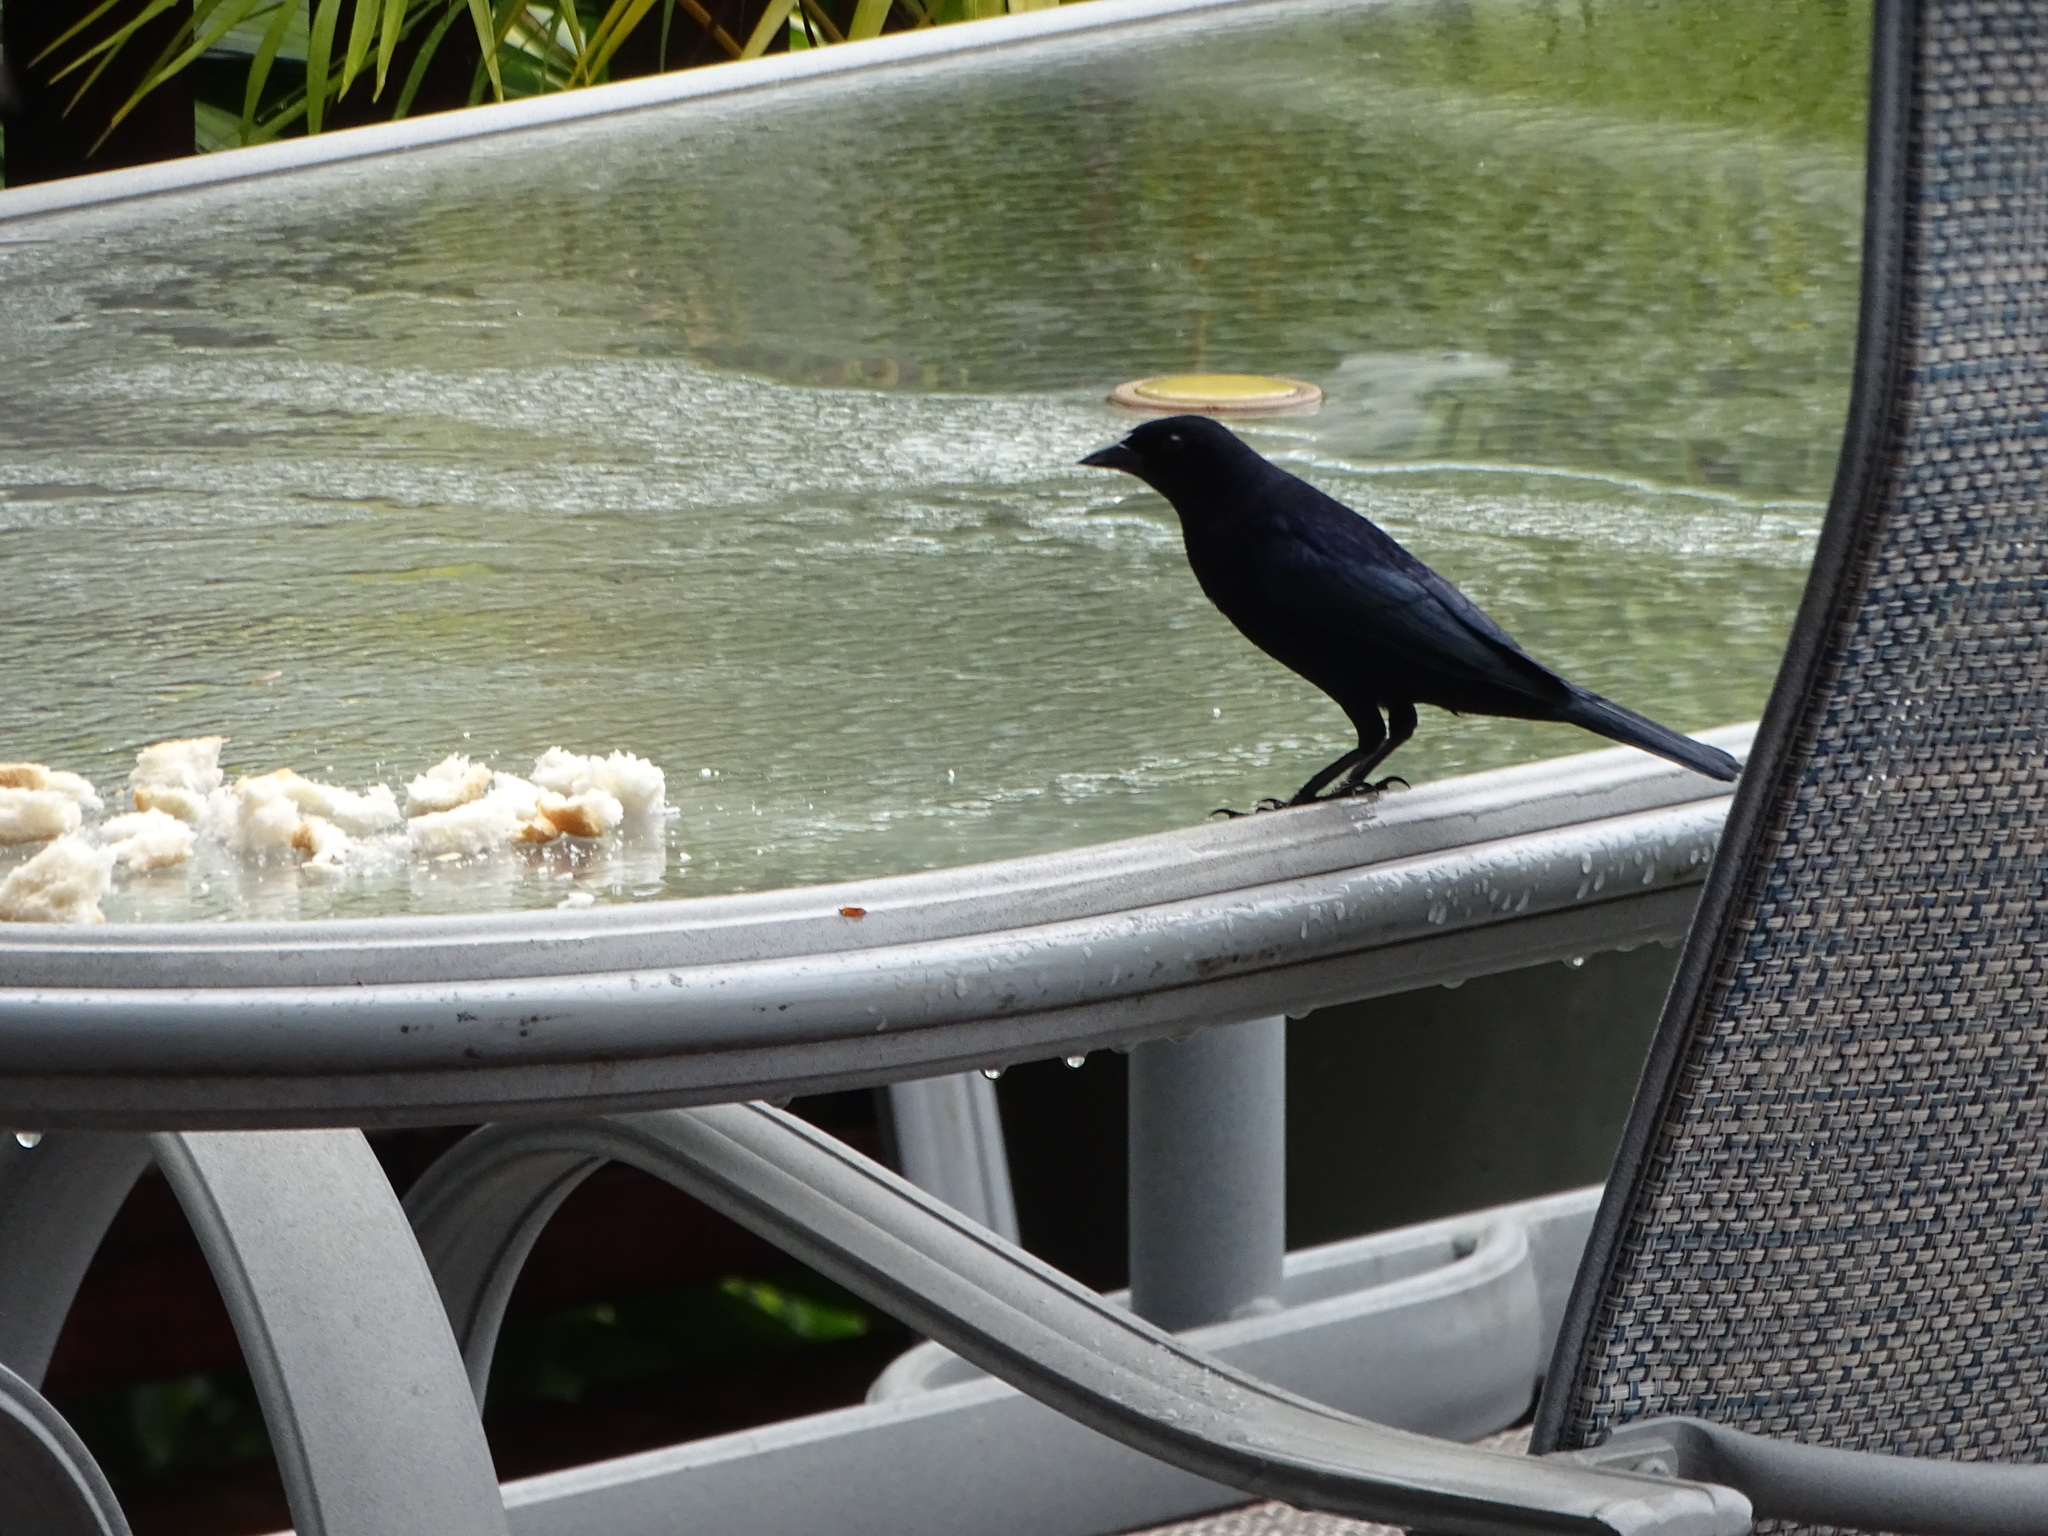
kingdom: Animalia
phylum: Chordata
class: Aves
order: Passeriformes
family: Icteridae
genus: Molothrus
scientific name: Molothrus bonariensis
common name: Shiny cowbird
